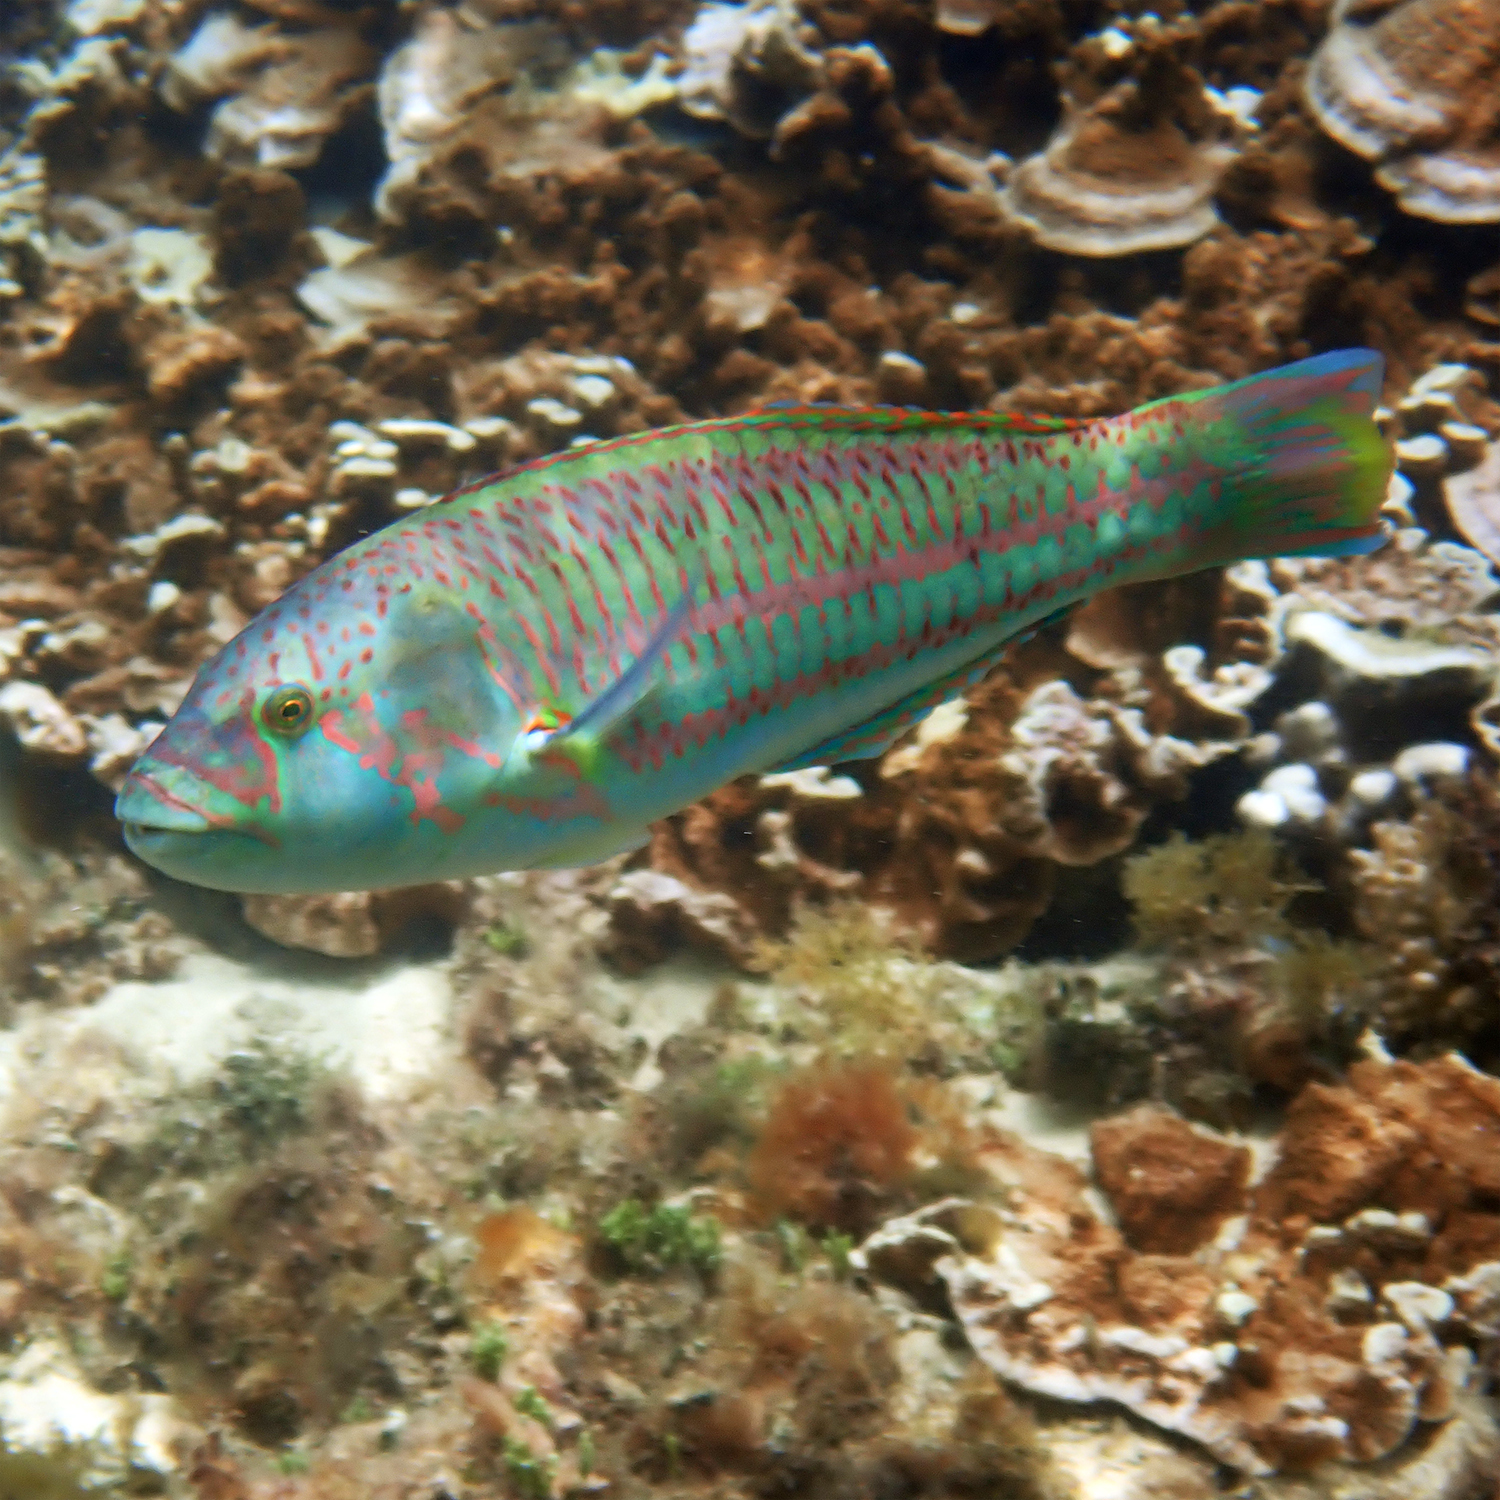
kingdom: Animalia
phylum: Chordata
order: Perciformes
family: Labridae
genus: Thalassoma
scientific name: Thalassoma purpureum
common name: Parrotfish
